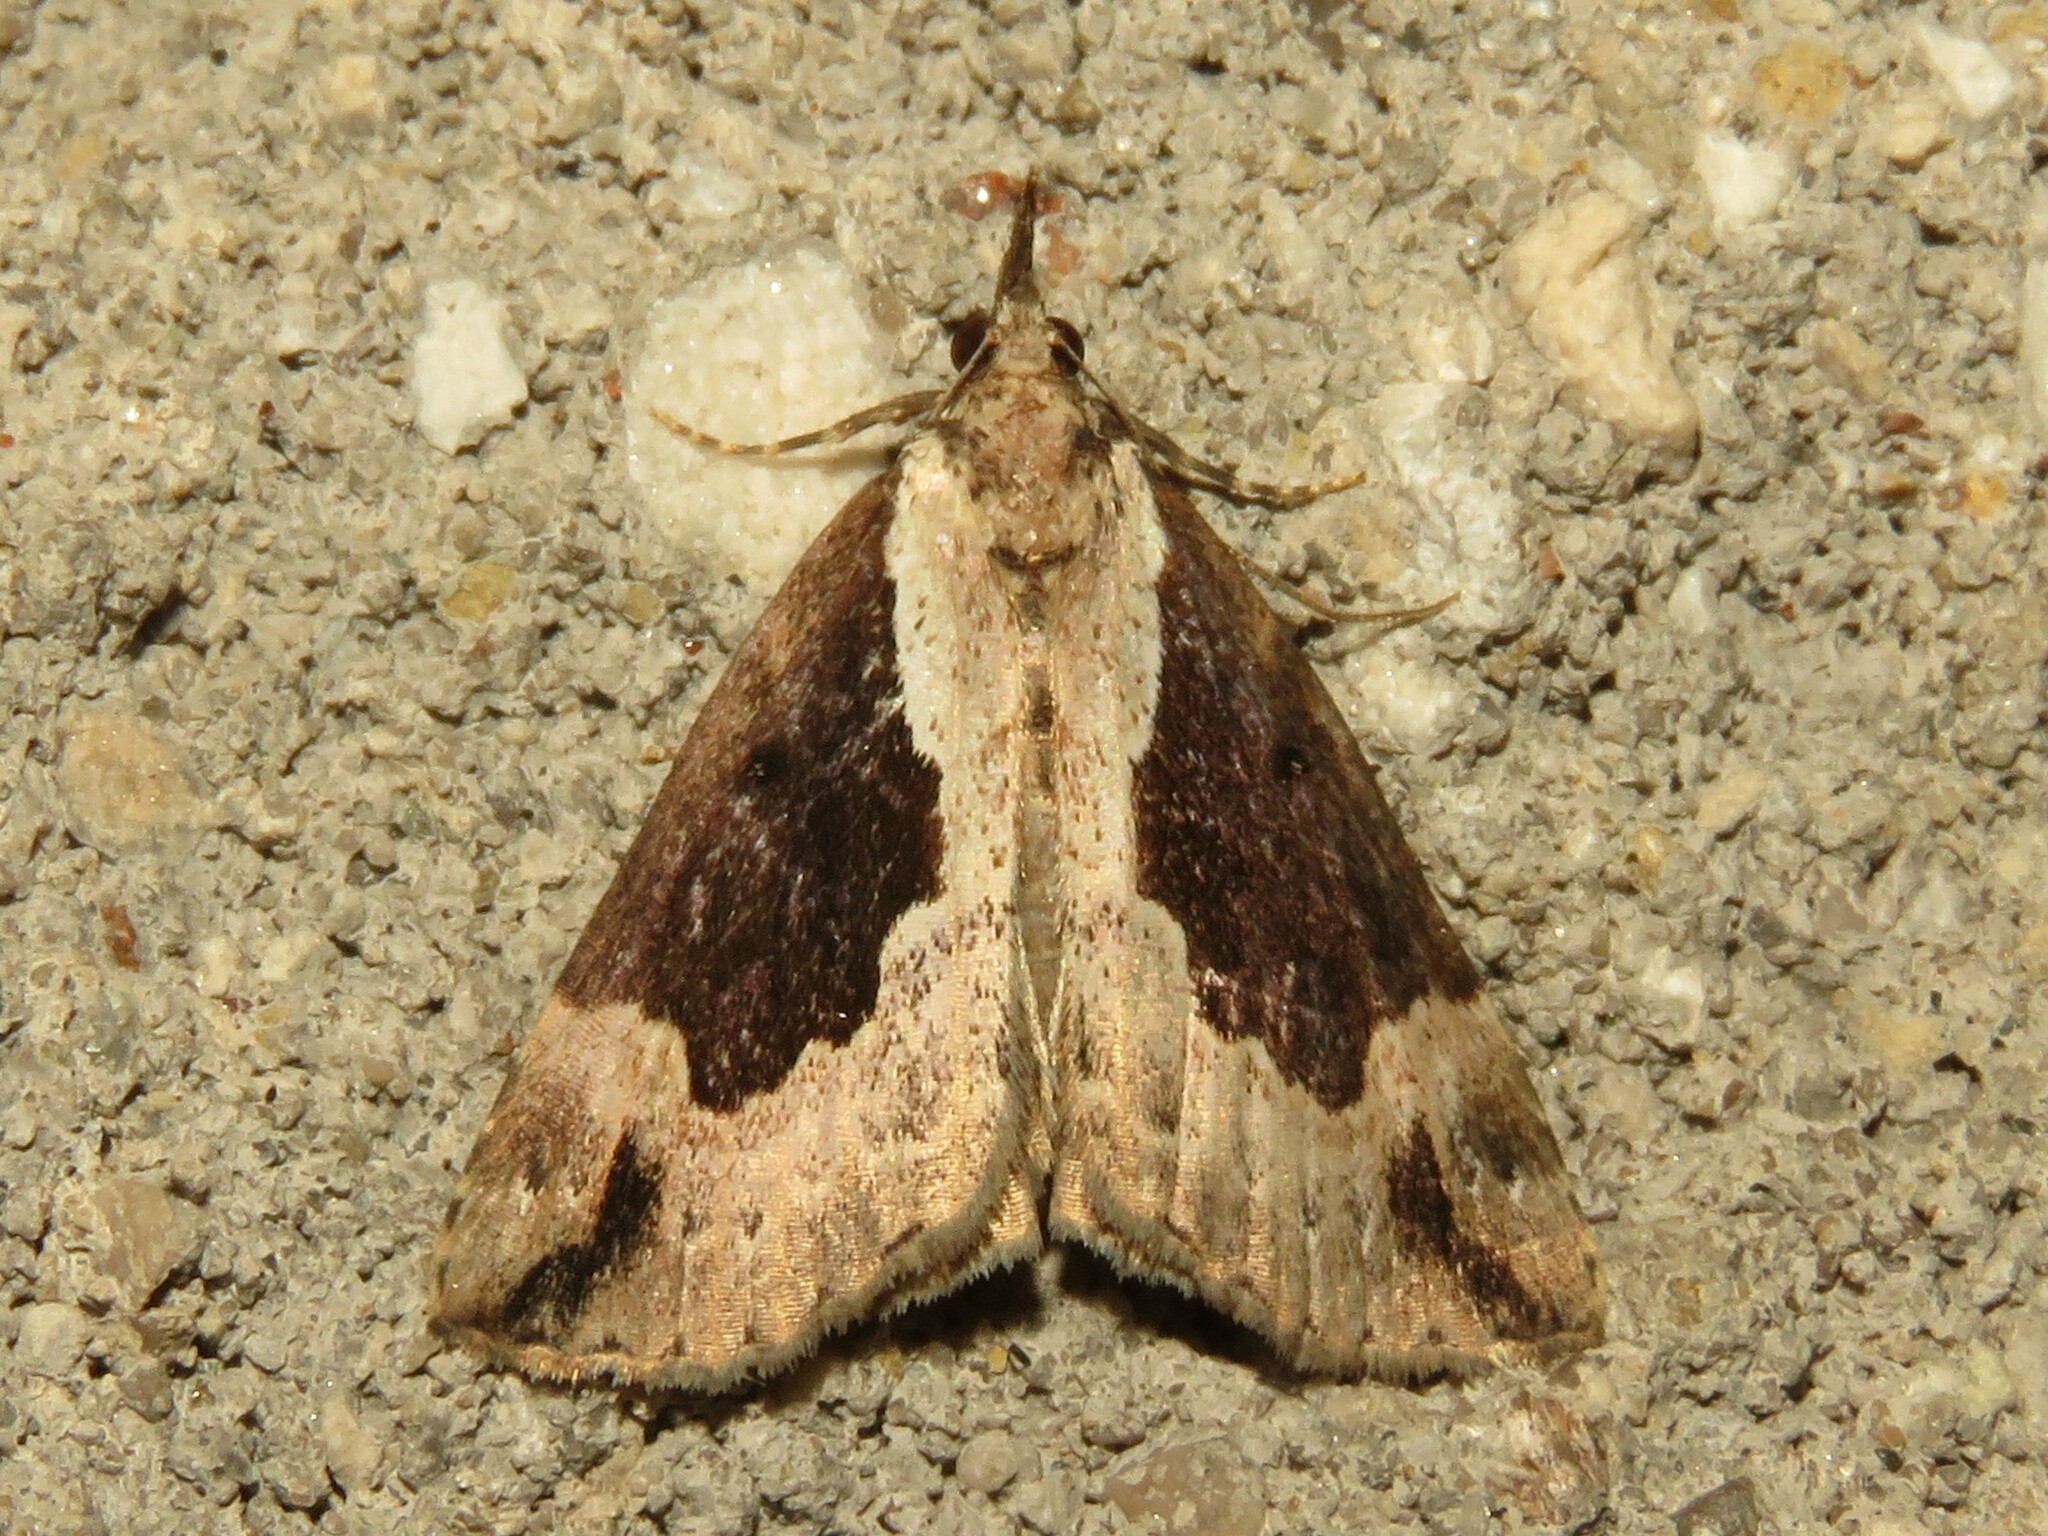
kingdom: Animalia
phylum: Arthropoda
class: Insecta
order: Lepidoptera
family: Erebidae
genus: Hypena
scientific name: Hypena baltimoralis
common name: Baltimore snout
